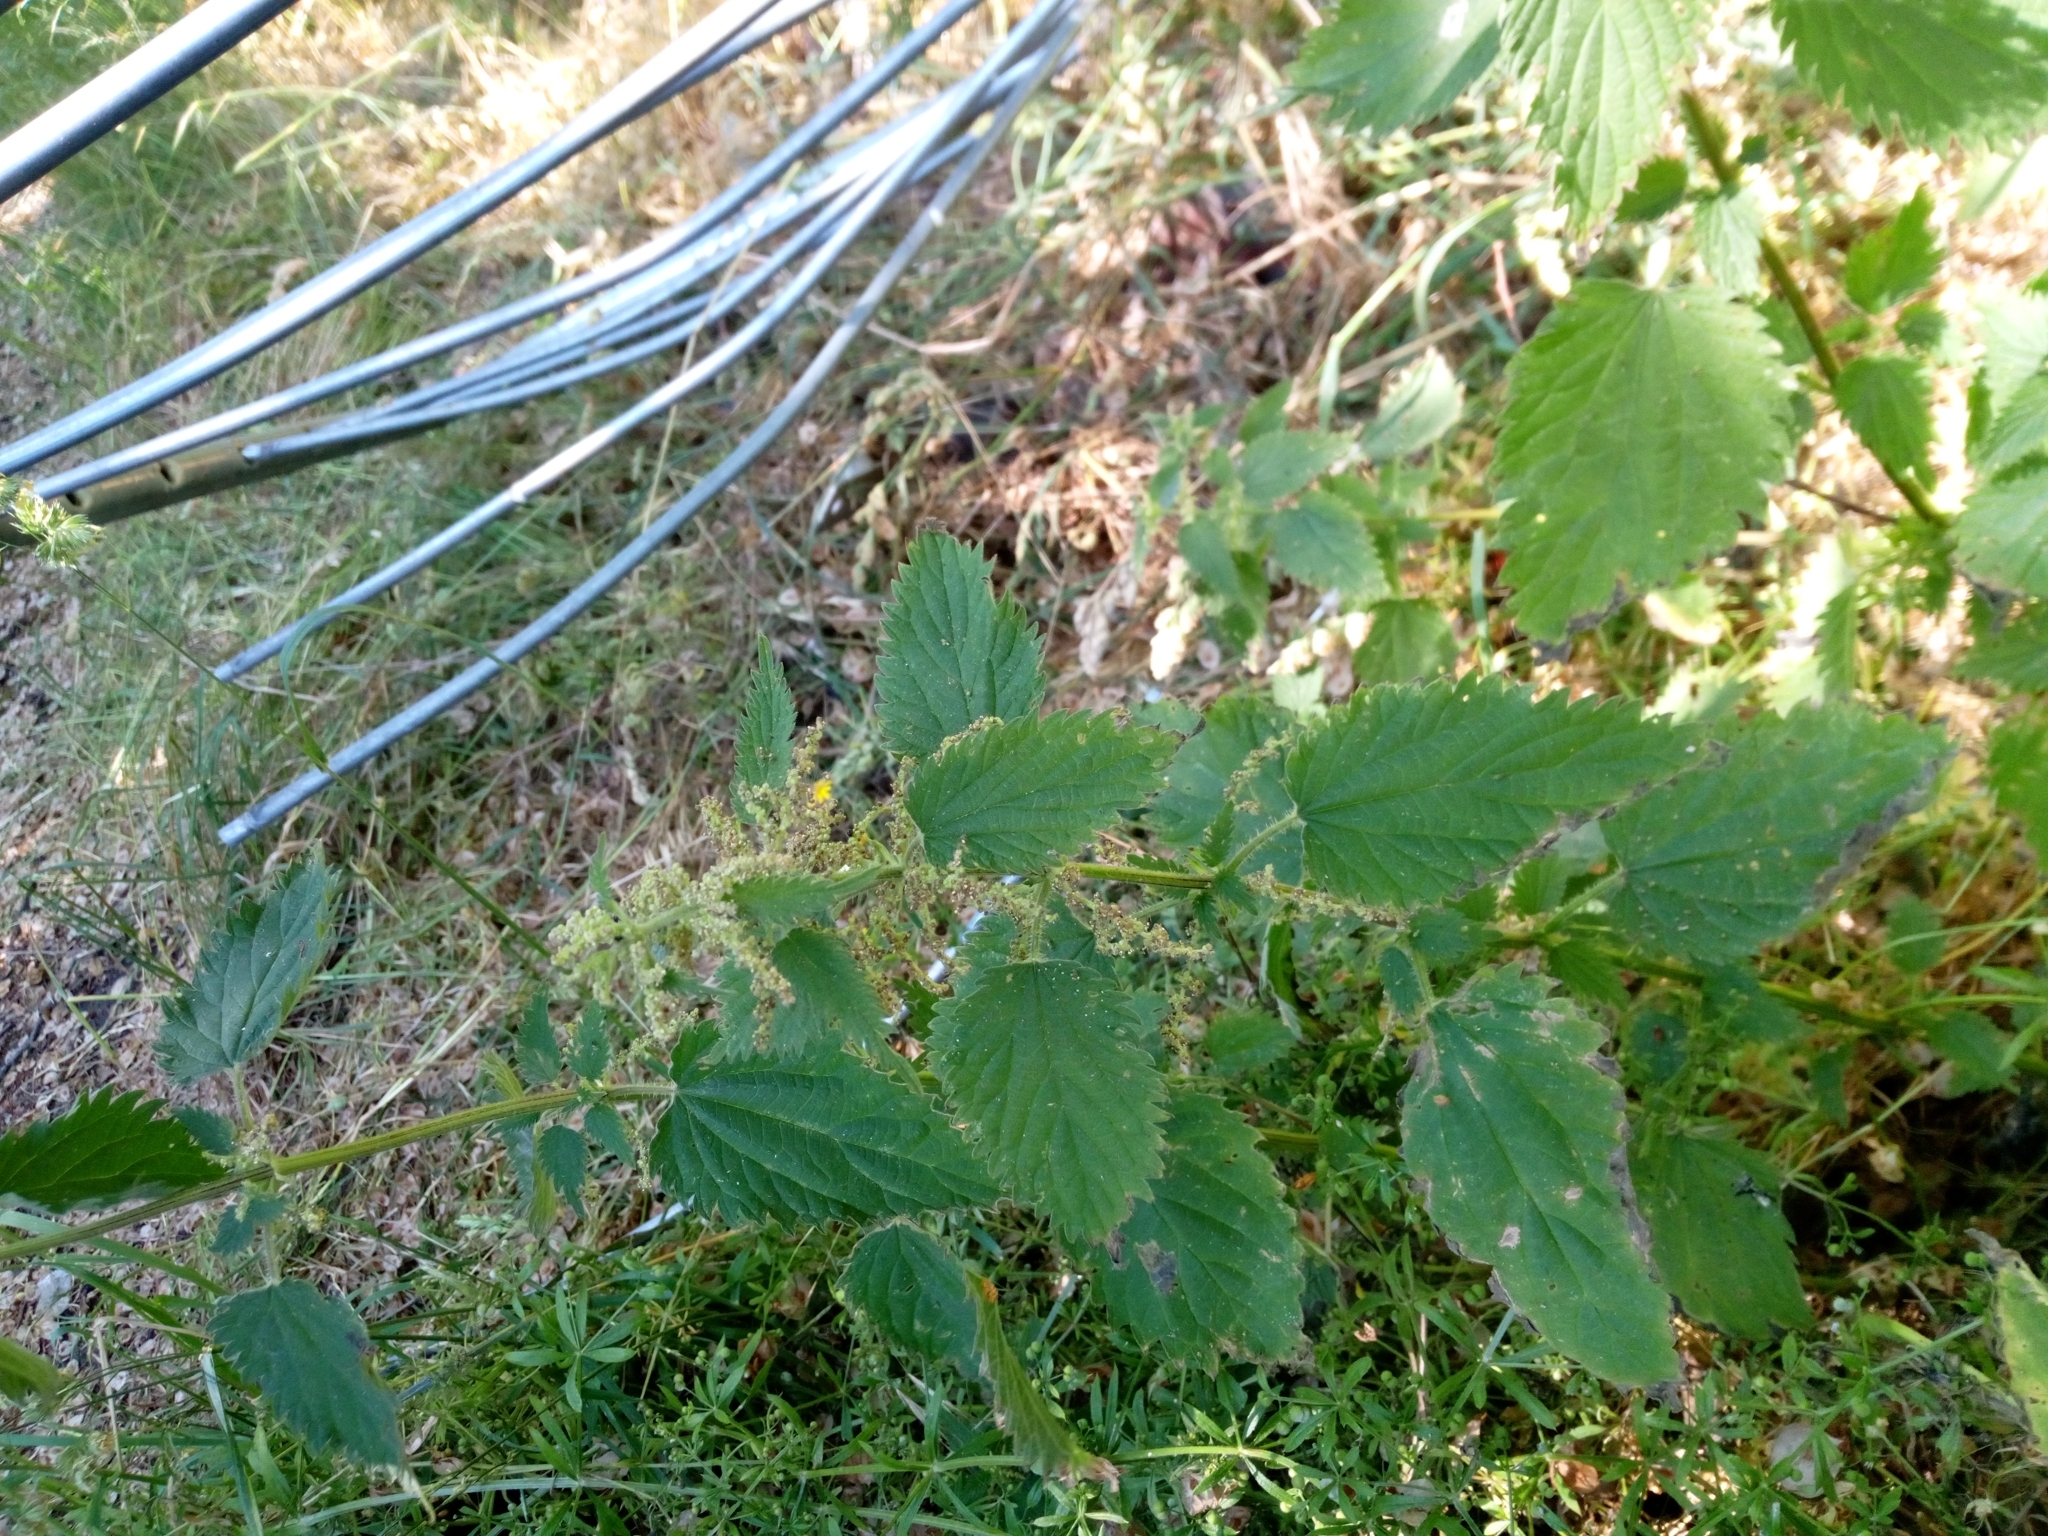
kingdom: Plantae
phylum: Tracheophyta
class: Magnoliopsida
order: Rosales
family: Urticaceae
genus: Urtica
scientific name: Urtica dioica
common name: Common nettle
